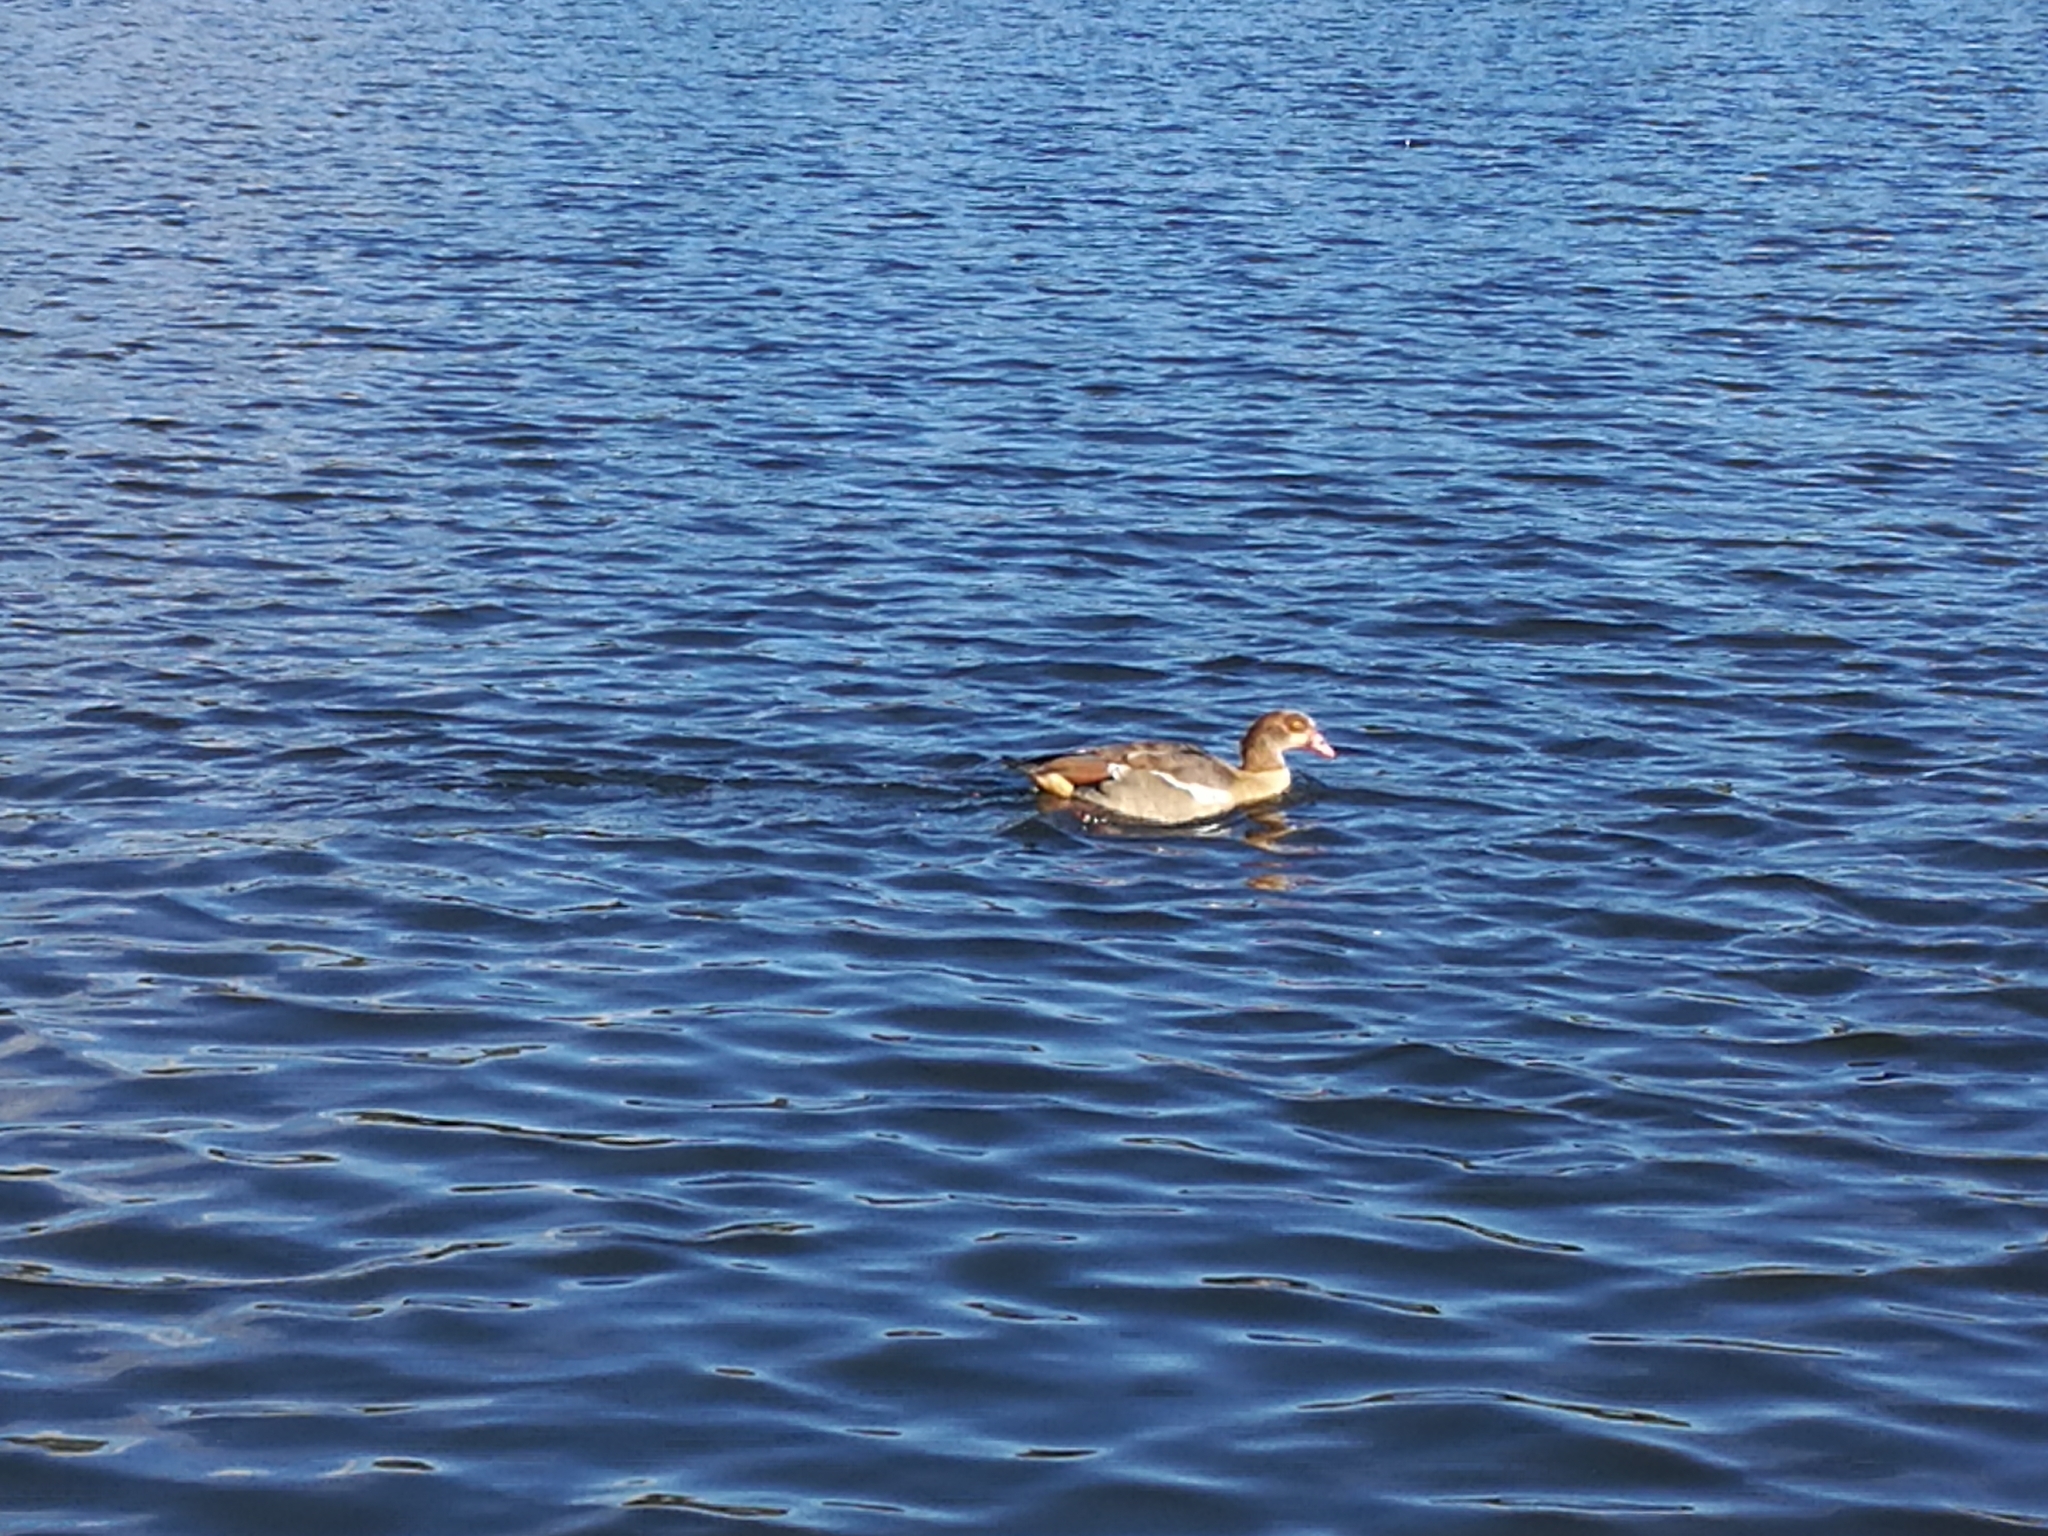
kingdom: Animalia
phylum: Chordata
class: Aves
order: Anseriformes
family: Anatidae
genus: Alopochen
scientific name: Alopochen aegyptiaca
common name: Egyptian goose
